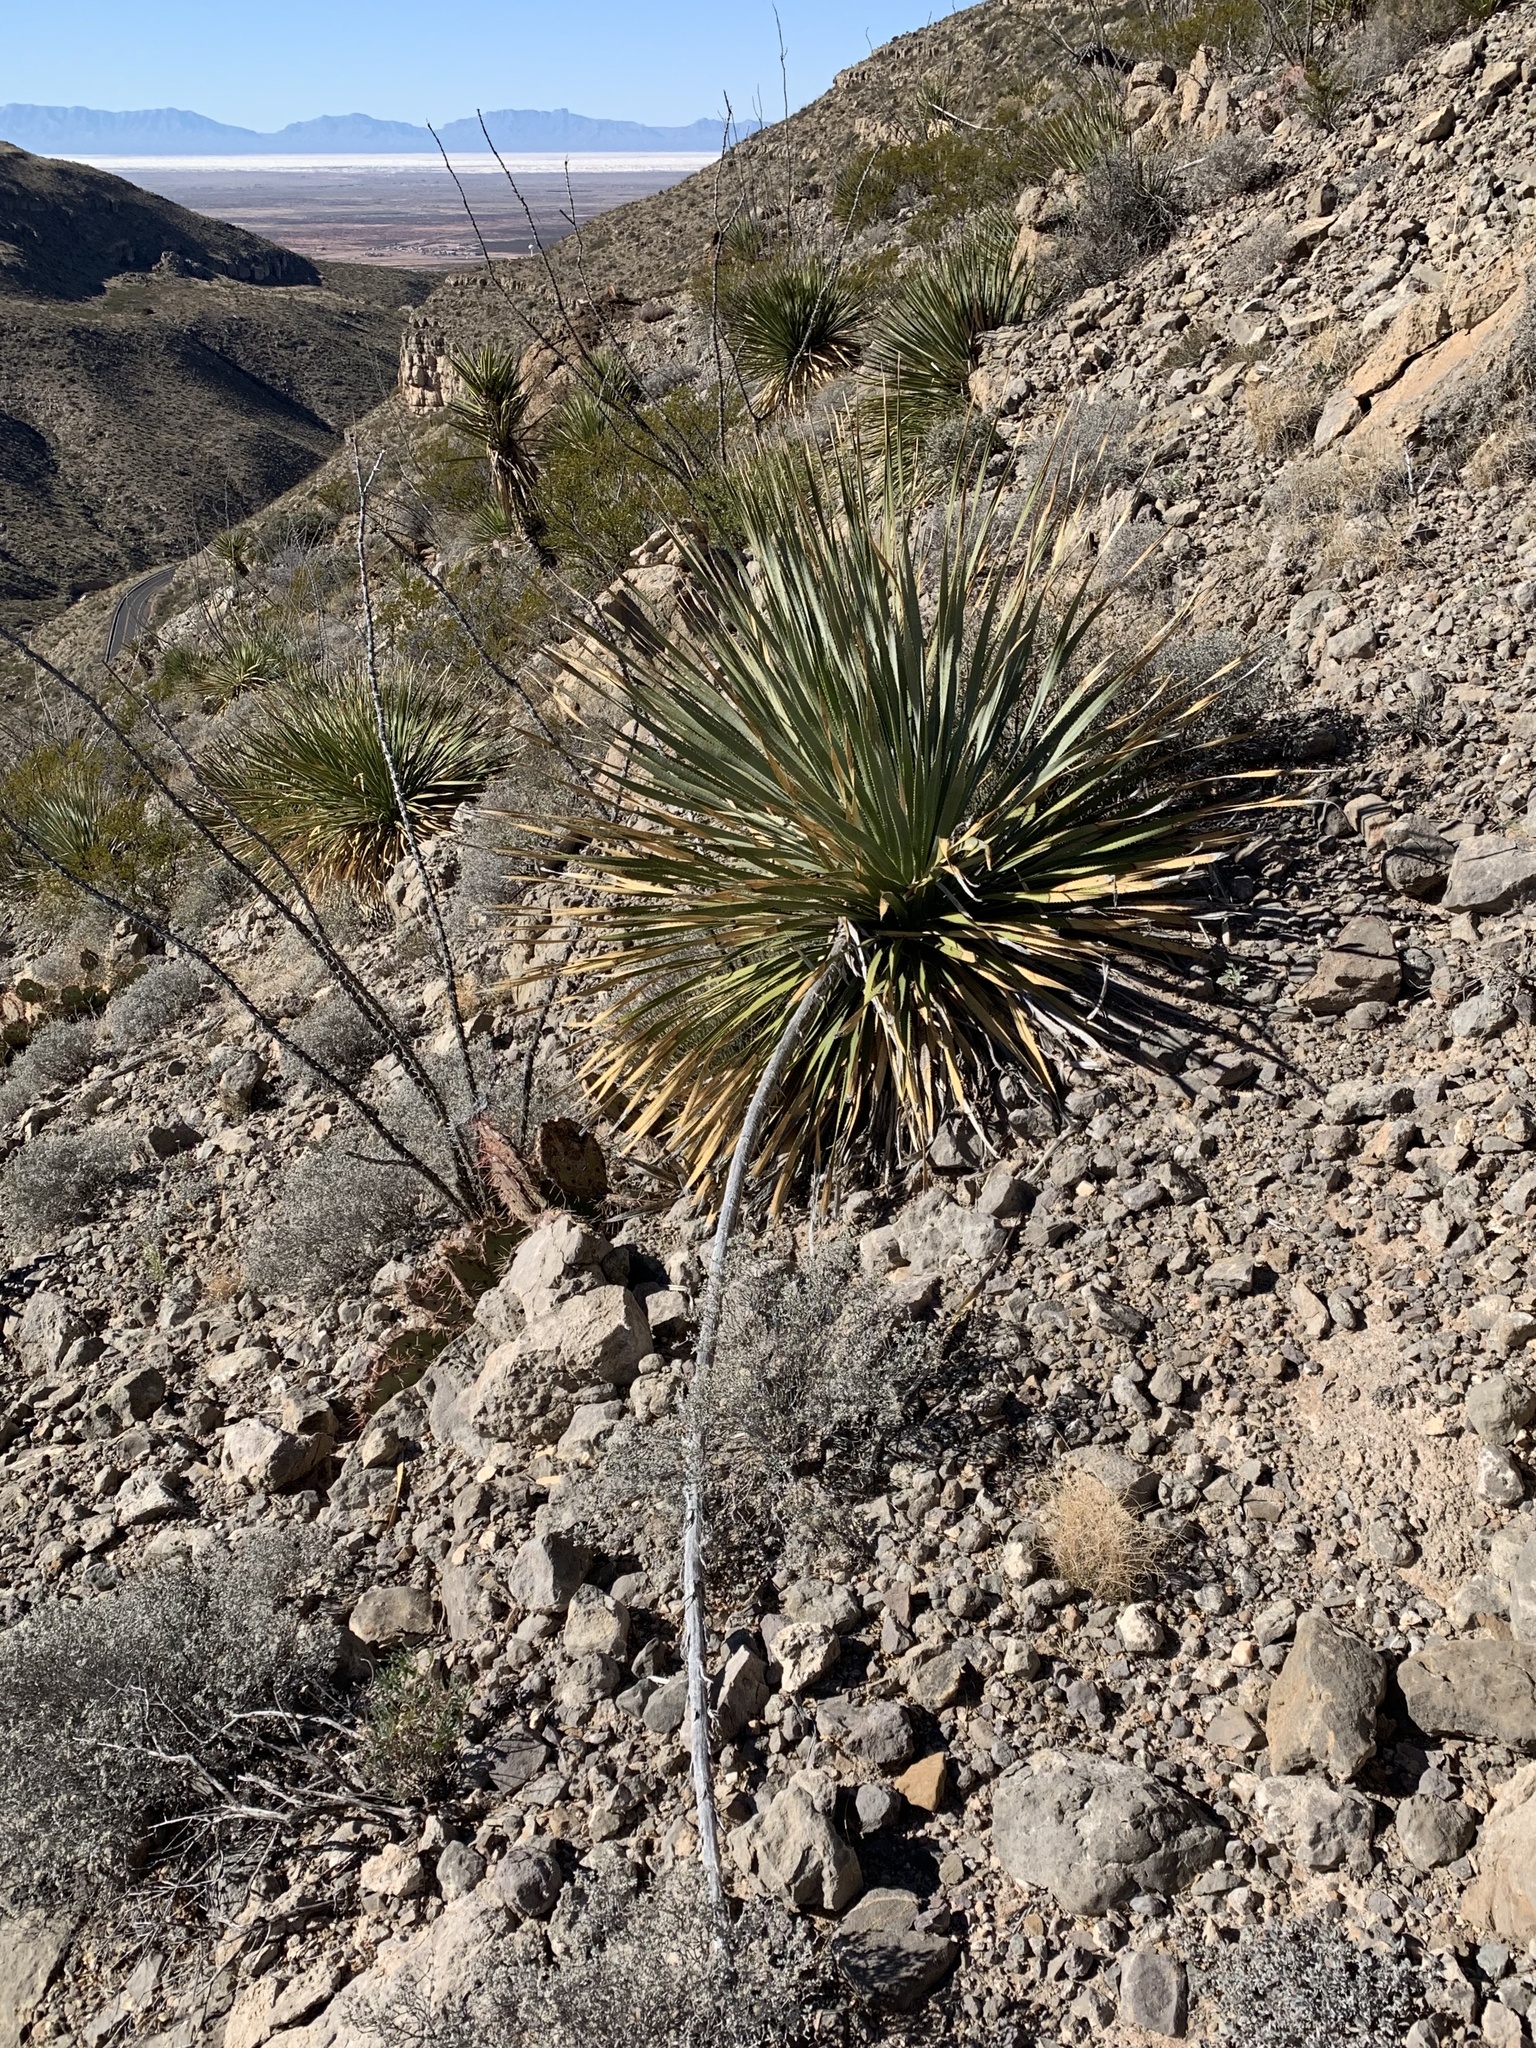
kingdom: Plantae
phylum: Tracheophyta
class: Liliopsida
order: Asparagales
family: Asparagaceae
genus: Dasylirion
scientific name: Dasylirion wheeleri
